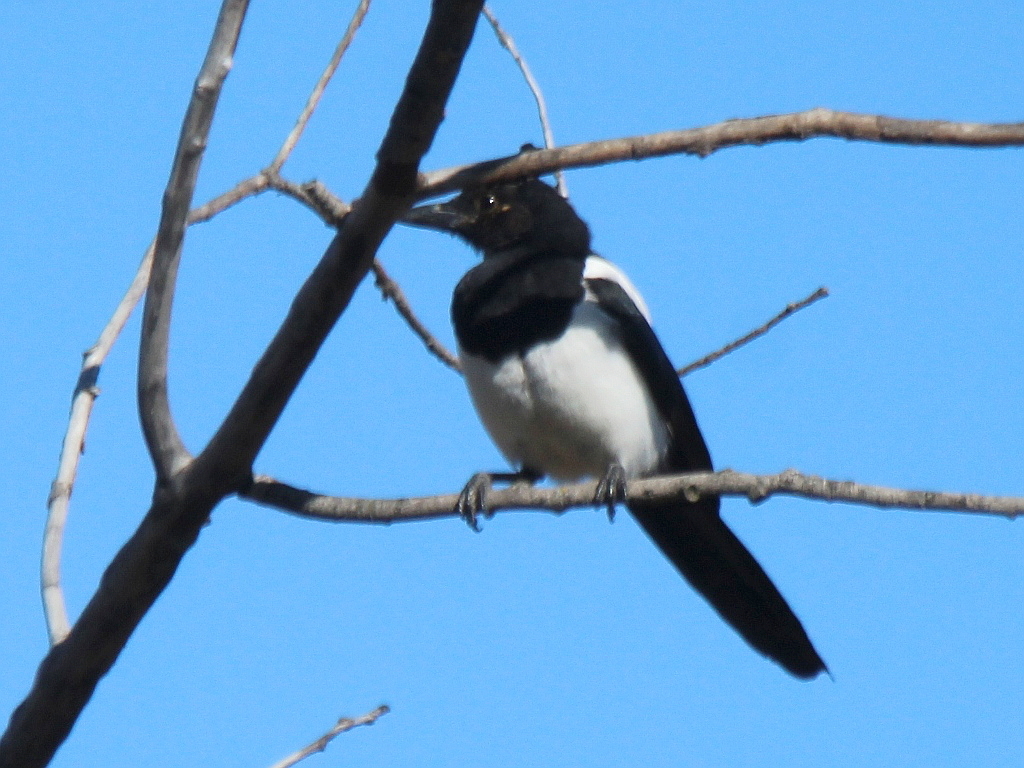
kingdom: Animalia
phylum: Chordata
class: Aves
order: Passeriformes
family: Corvidae
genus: Pica
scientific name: Pica pica
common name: Eurasian magpie
